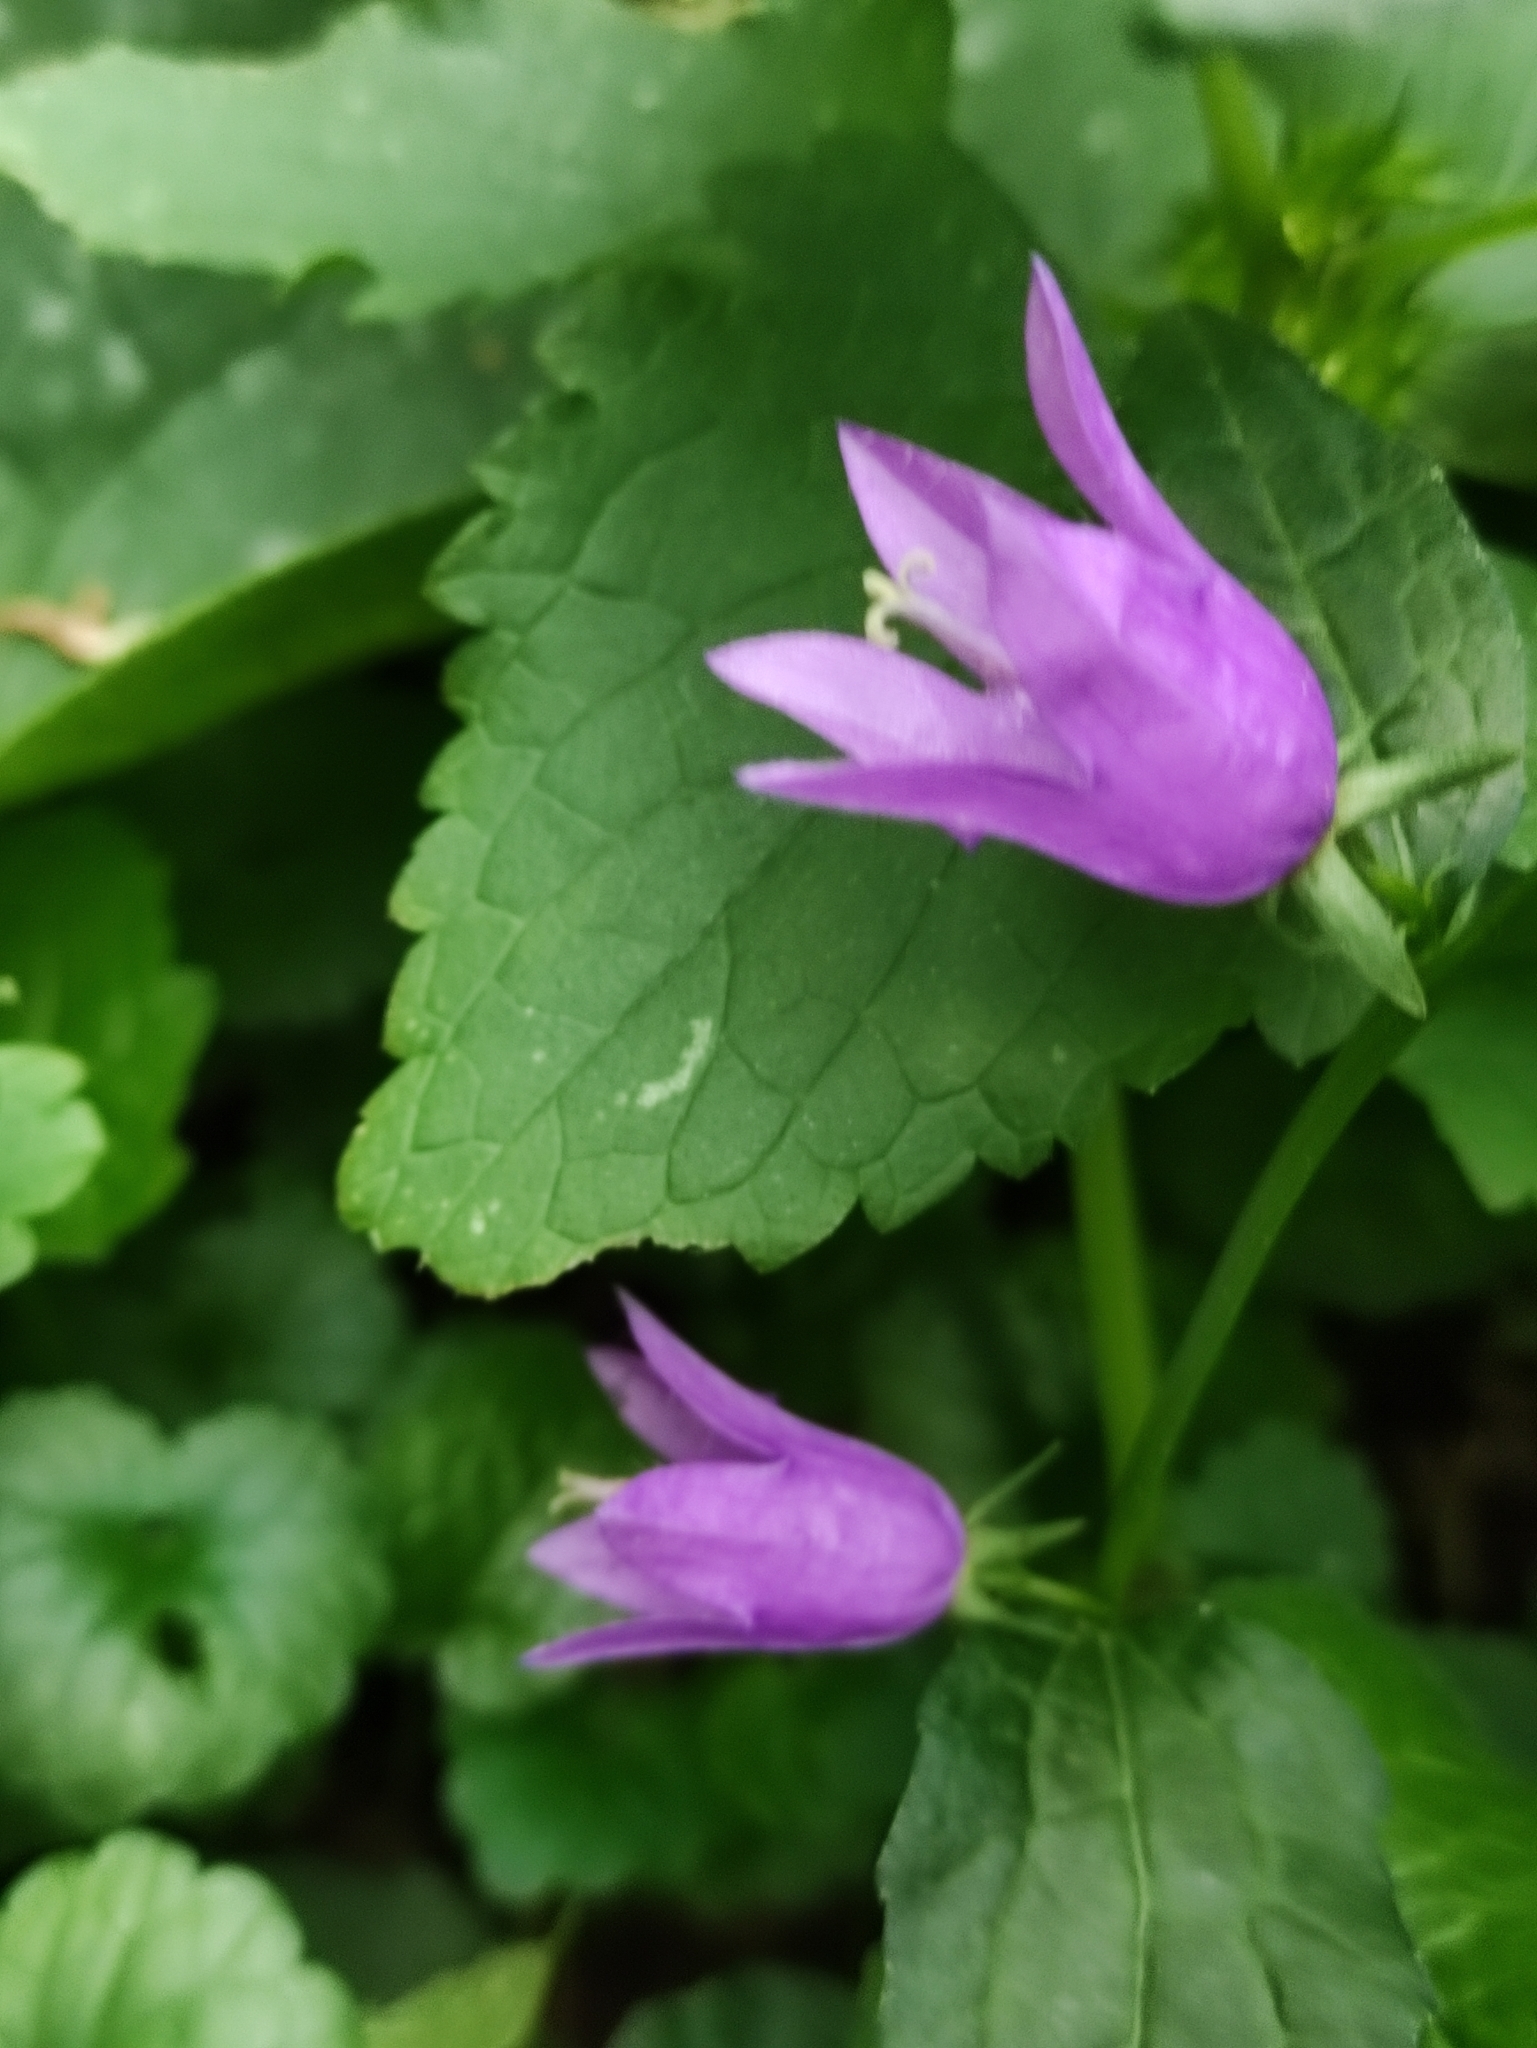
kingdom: Plantae
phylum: Tracheophyta
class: Magnoliopsida
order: Asterales
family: Campanulaceae
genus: Campanula
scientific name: Campanula rapunculoides
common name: Creeping bellflower
